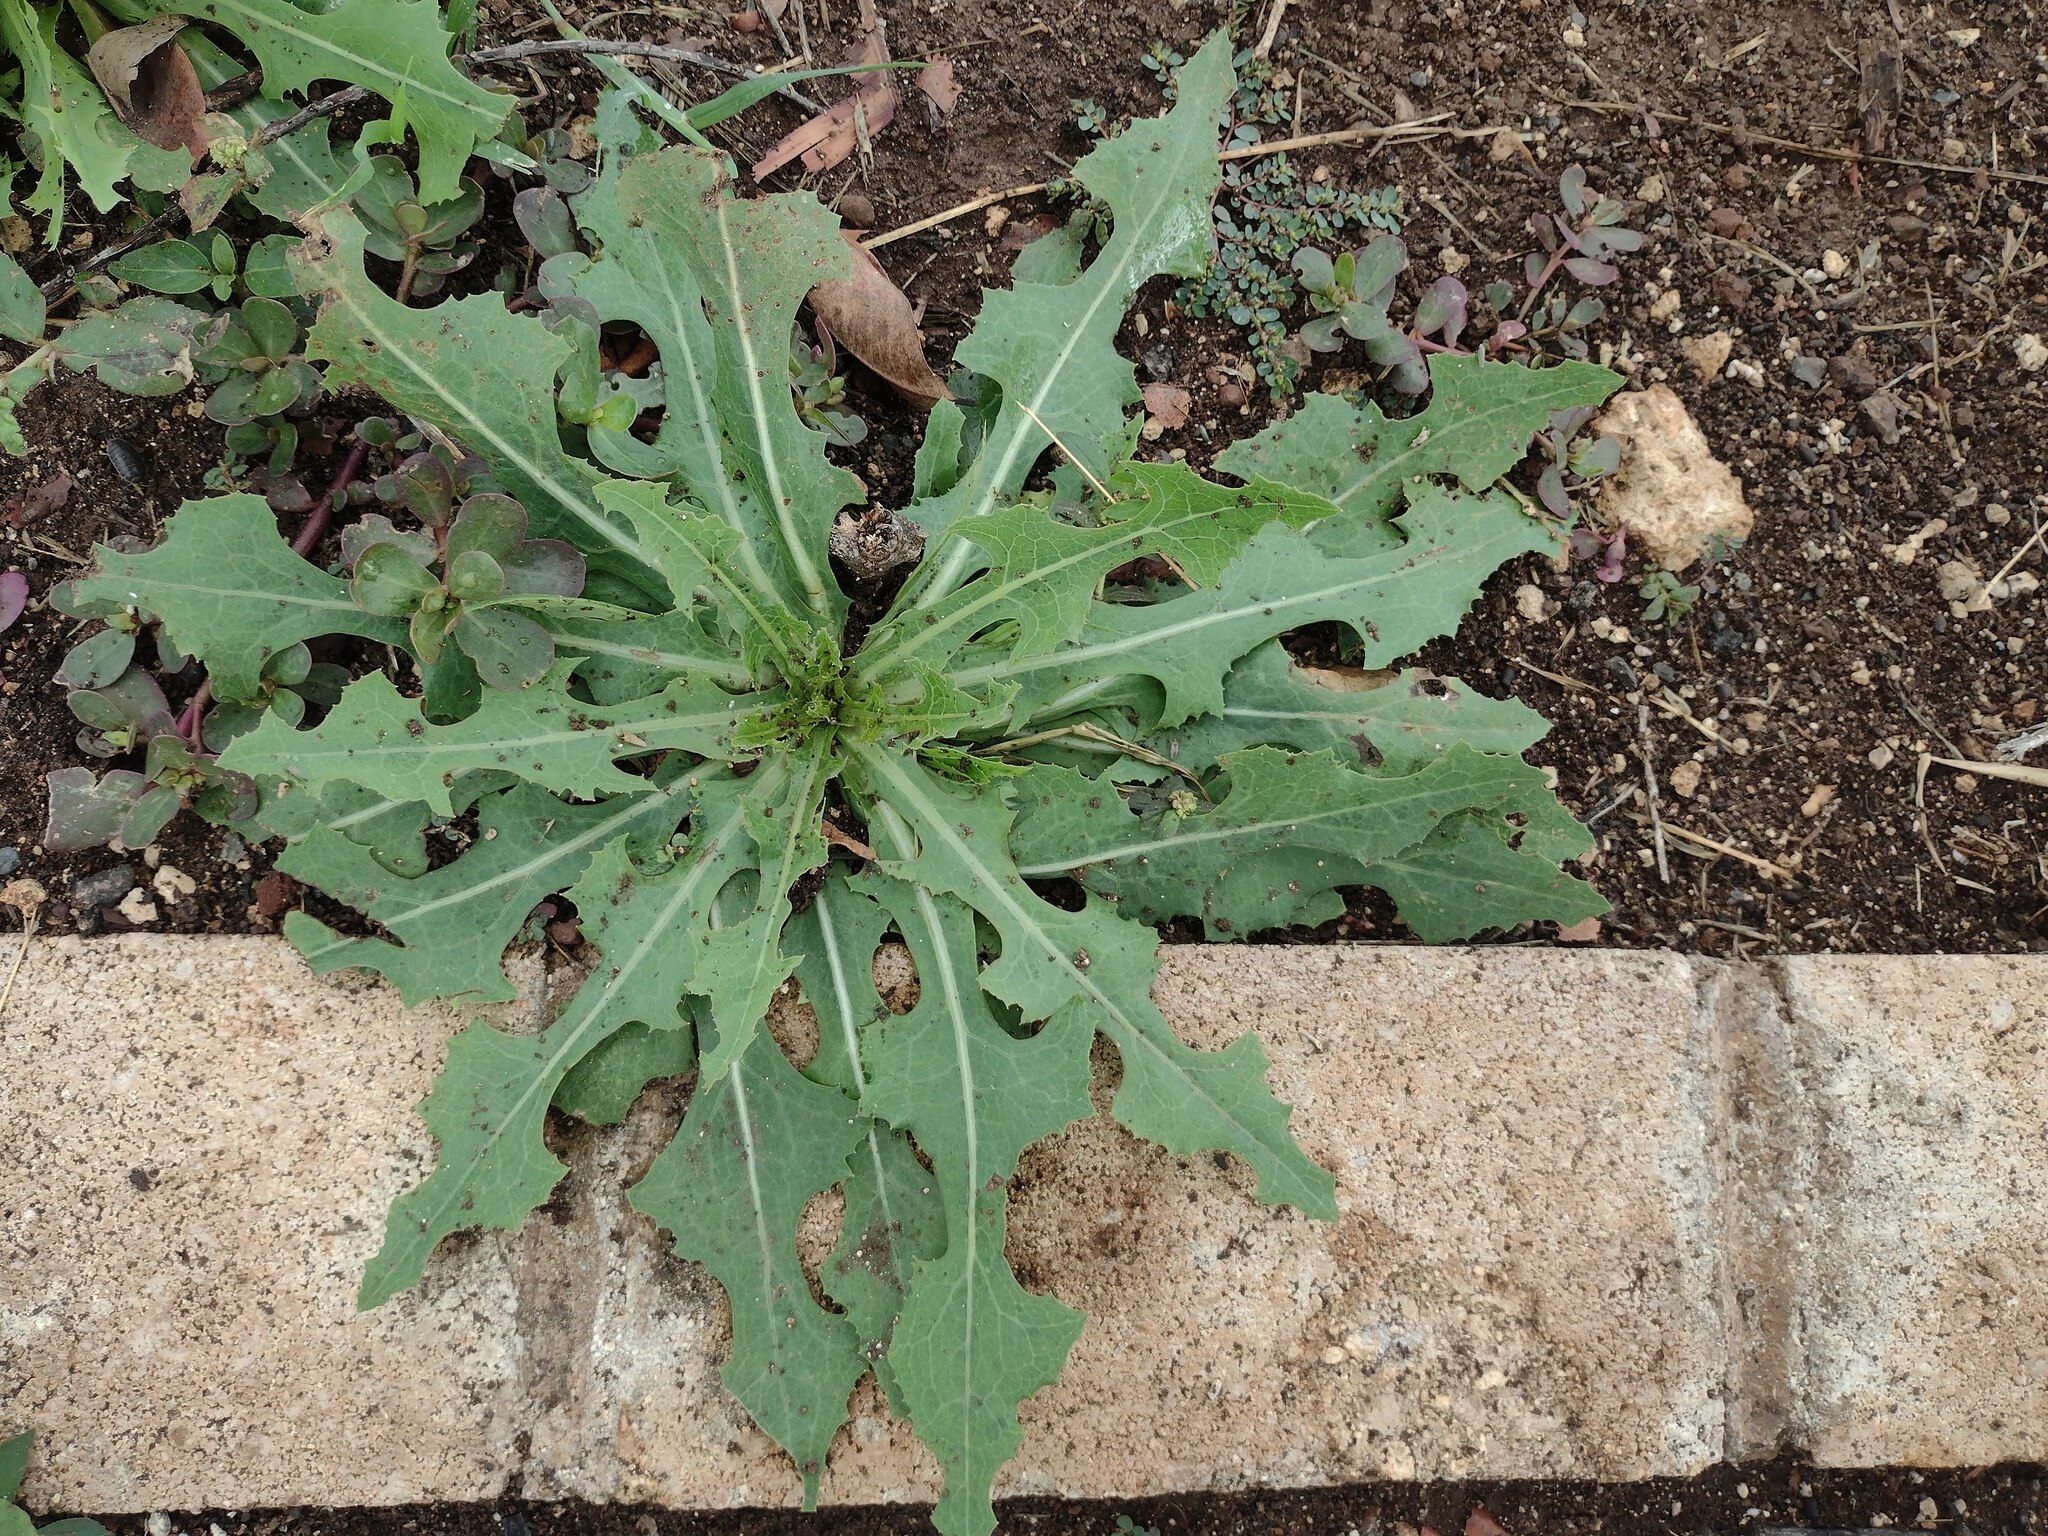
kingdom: Plantae
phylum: Tracheophyta
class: Magnoliopsida
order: Asterales
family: Asteraceae
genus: Lactuca
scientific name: Lactuca serriola
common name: Prickly lettuce
